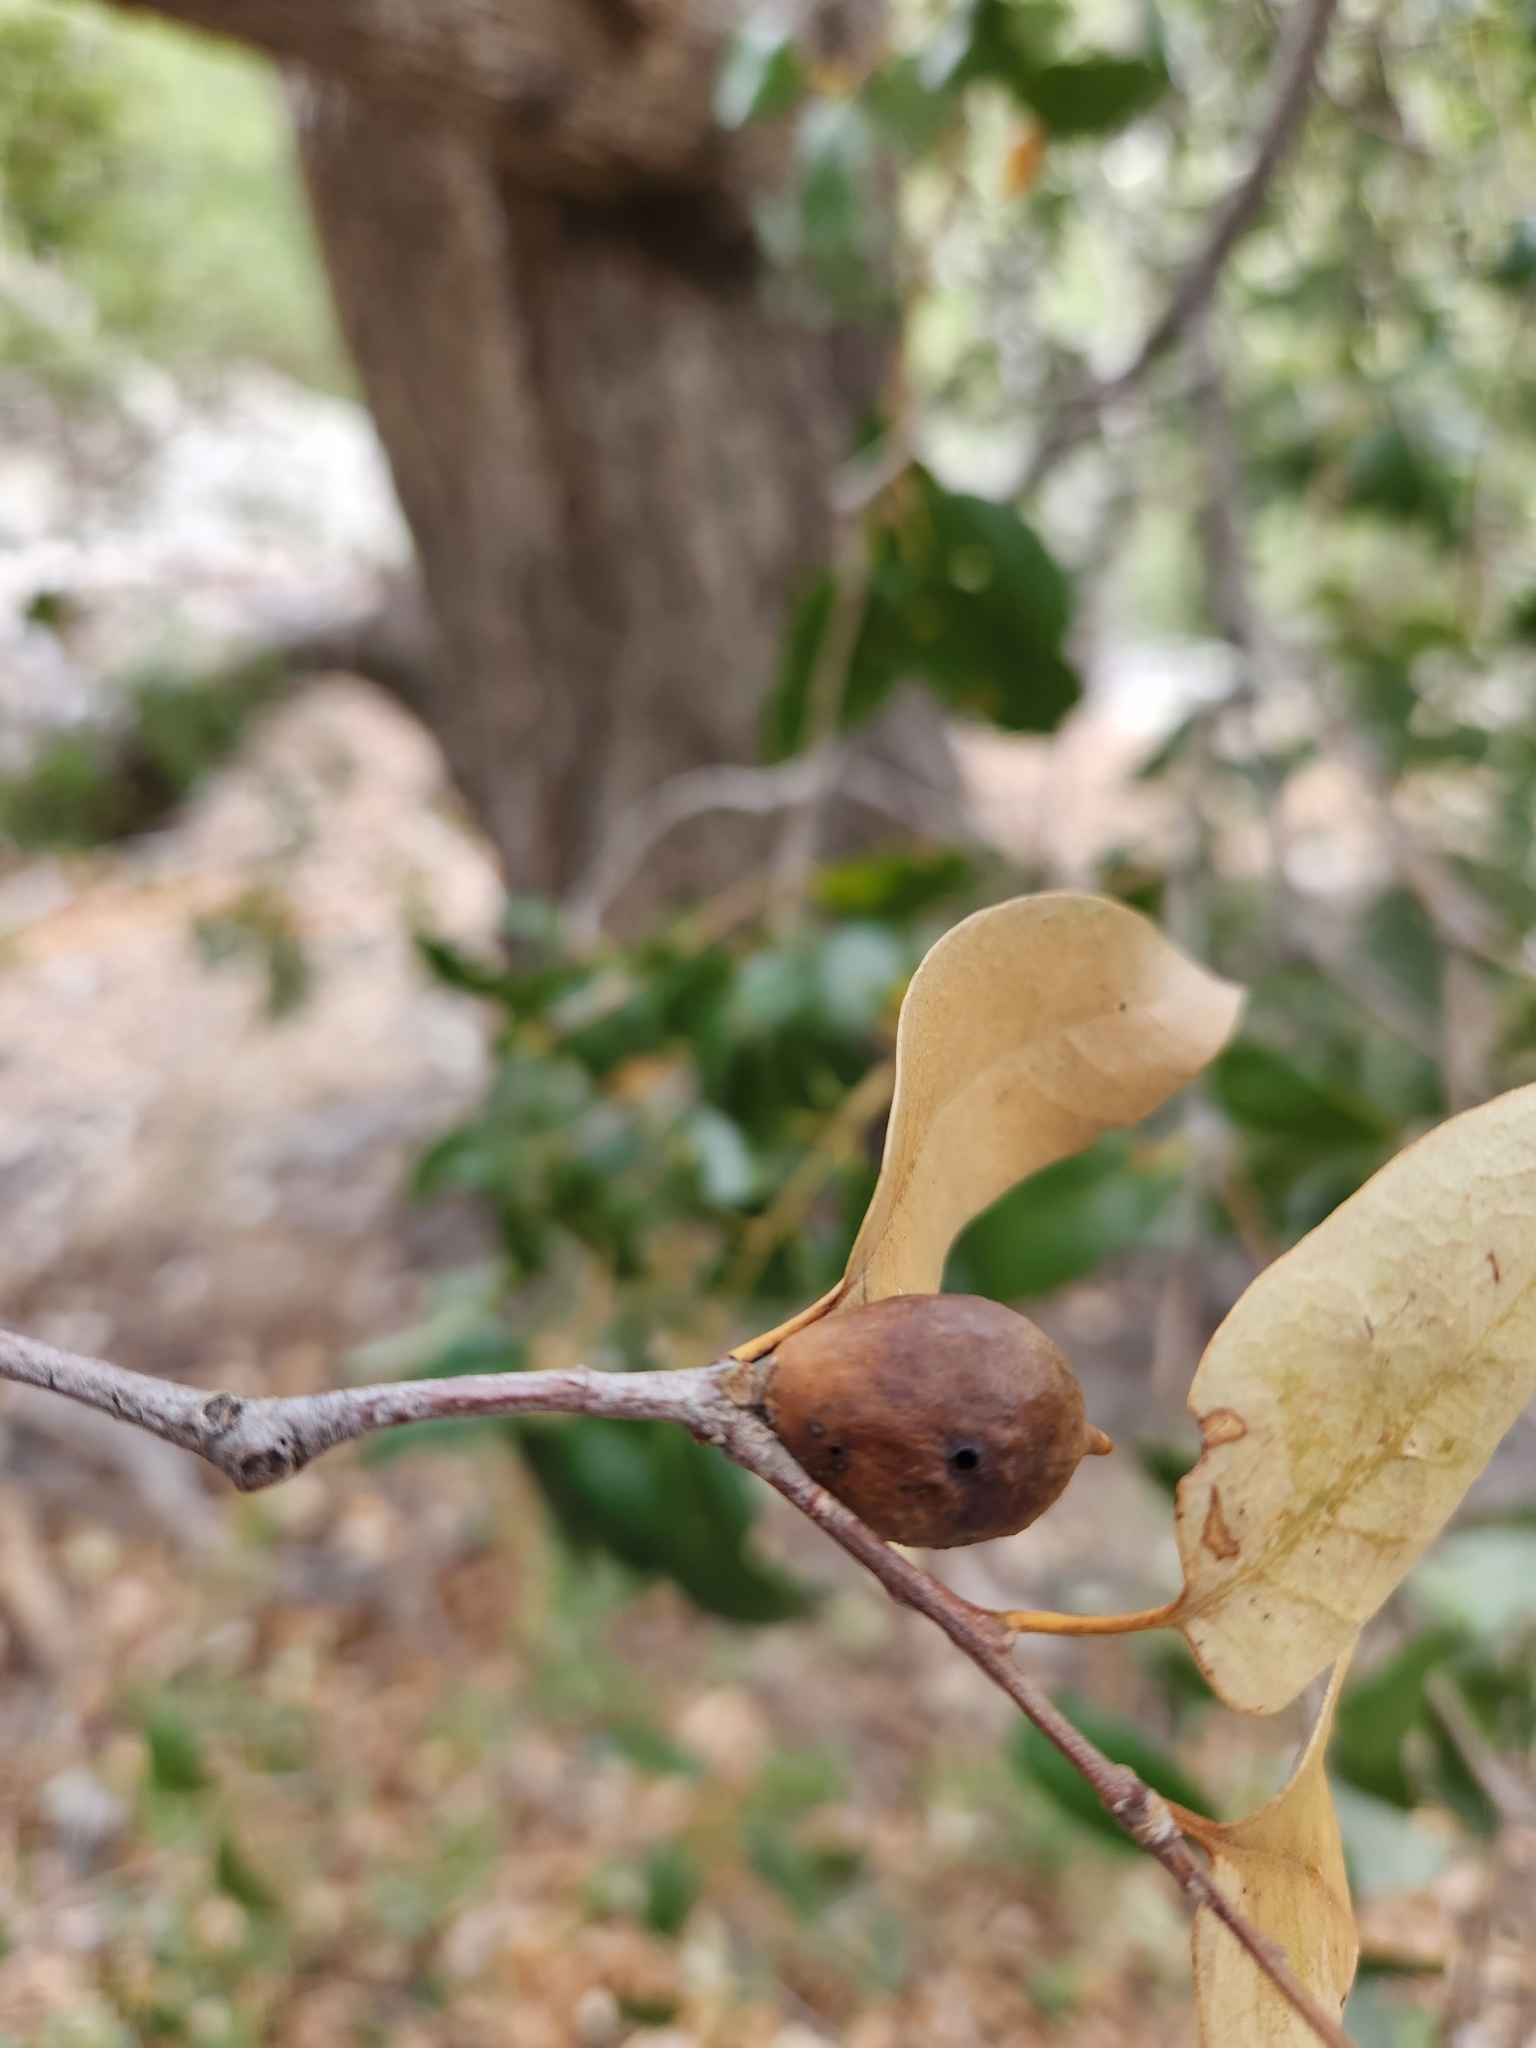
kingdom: Plantae
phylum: Tracheophyta
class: Magnoliopsida
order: Fagales
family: Fagaceae
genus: Quercus
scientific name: Quercus chrysolepis
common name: Canyon live oak
